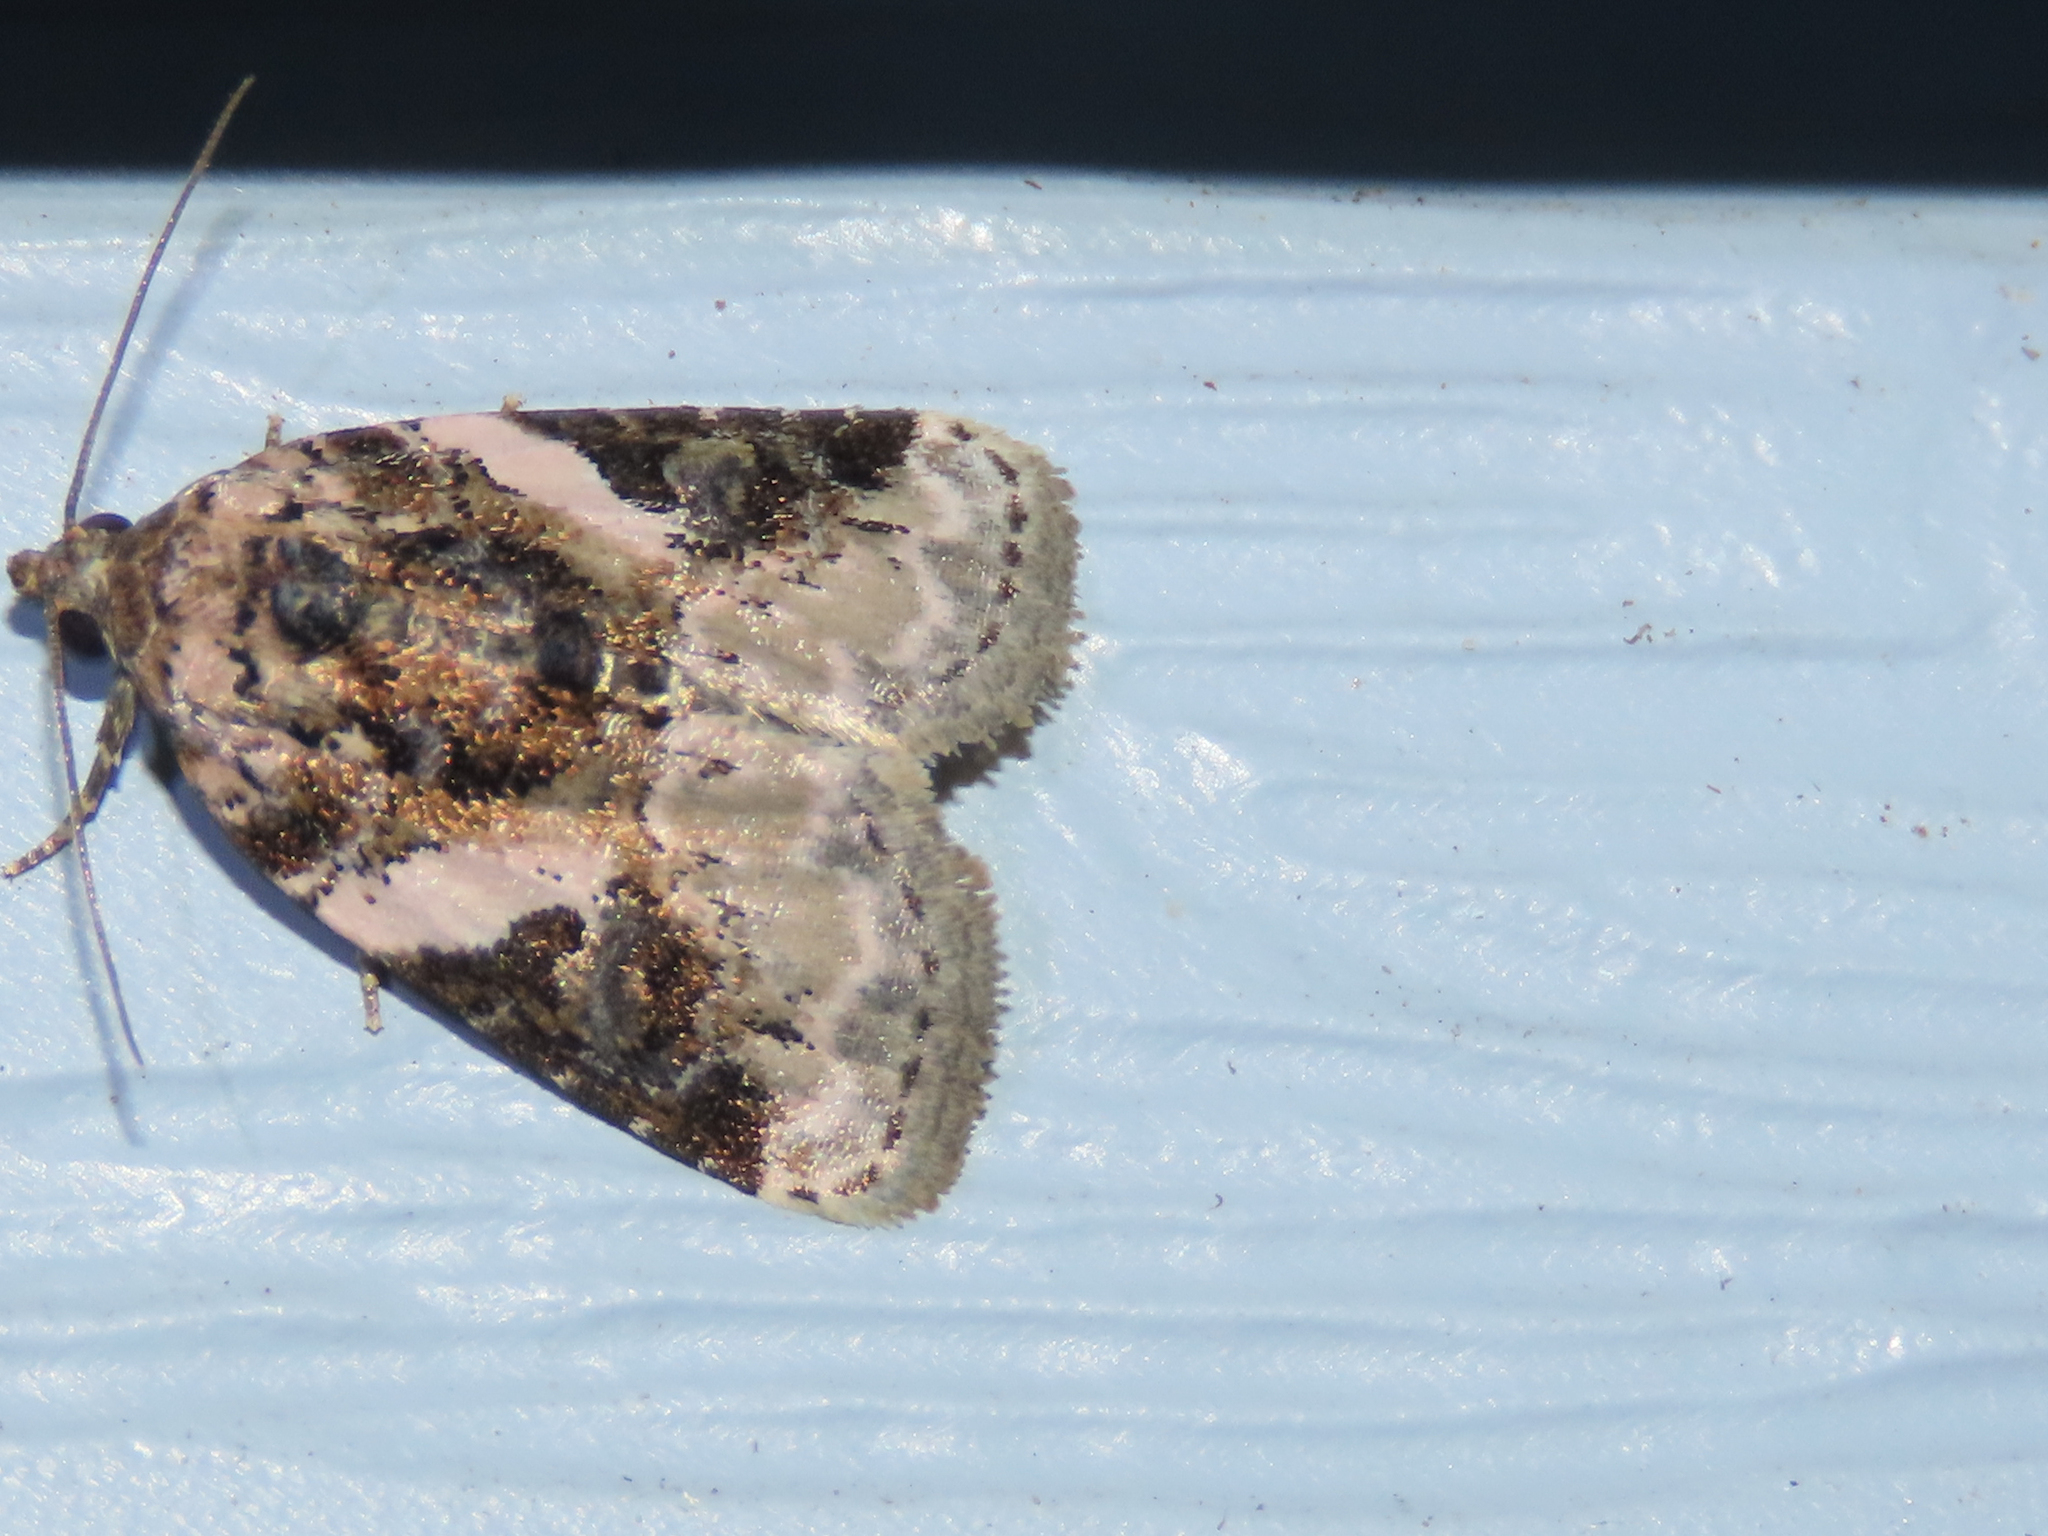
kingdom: Animalia
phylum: Arthropoda
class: Insecta
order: Lepidoptera
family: Noctuidae
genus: Pseudeustrotia
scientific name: Pseudeustrotia carneola
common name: Pink-barred lithacodia moth
